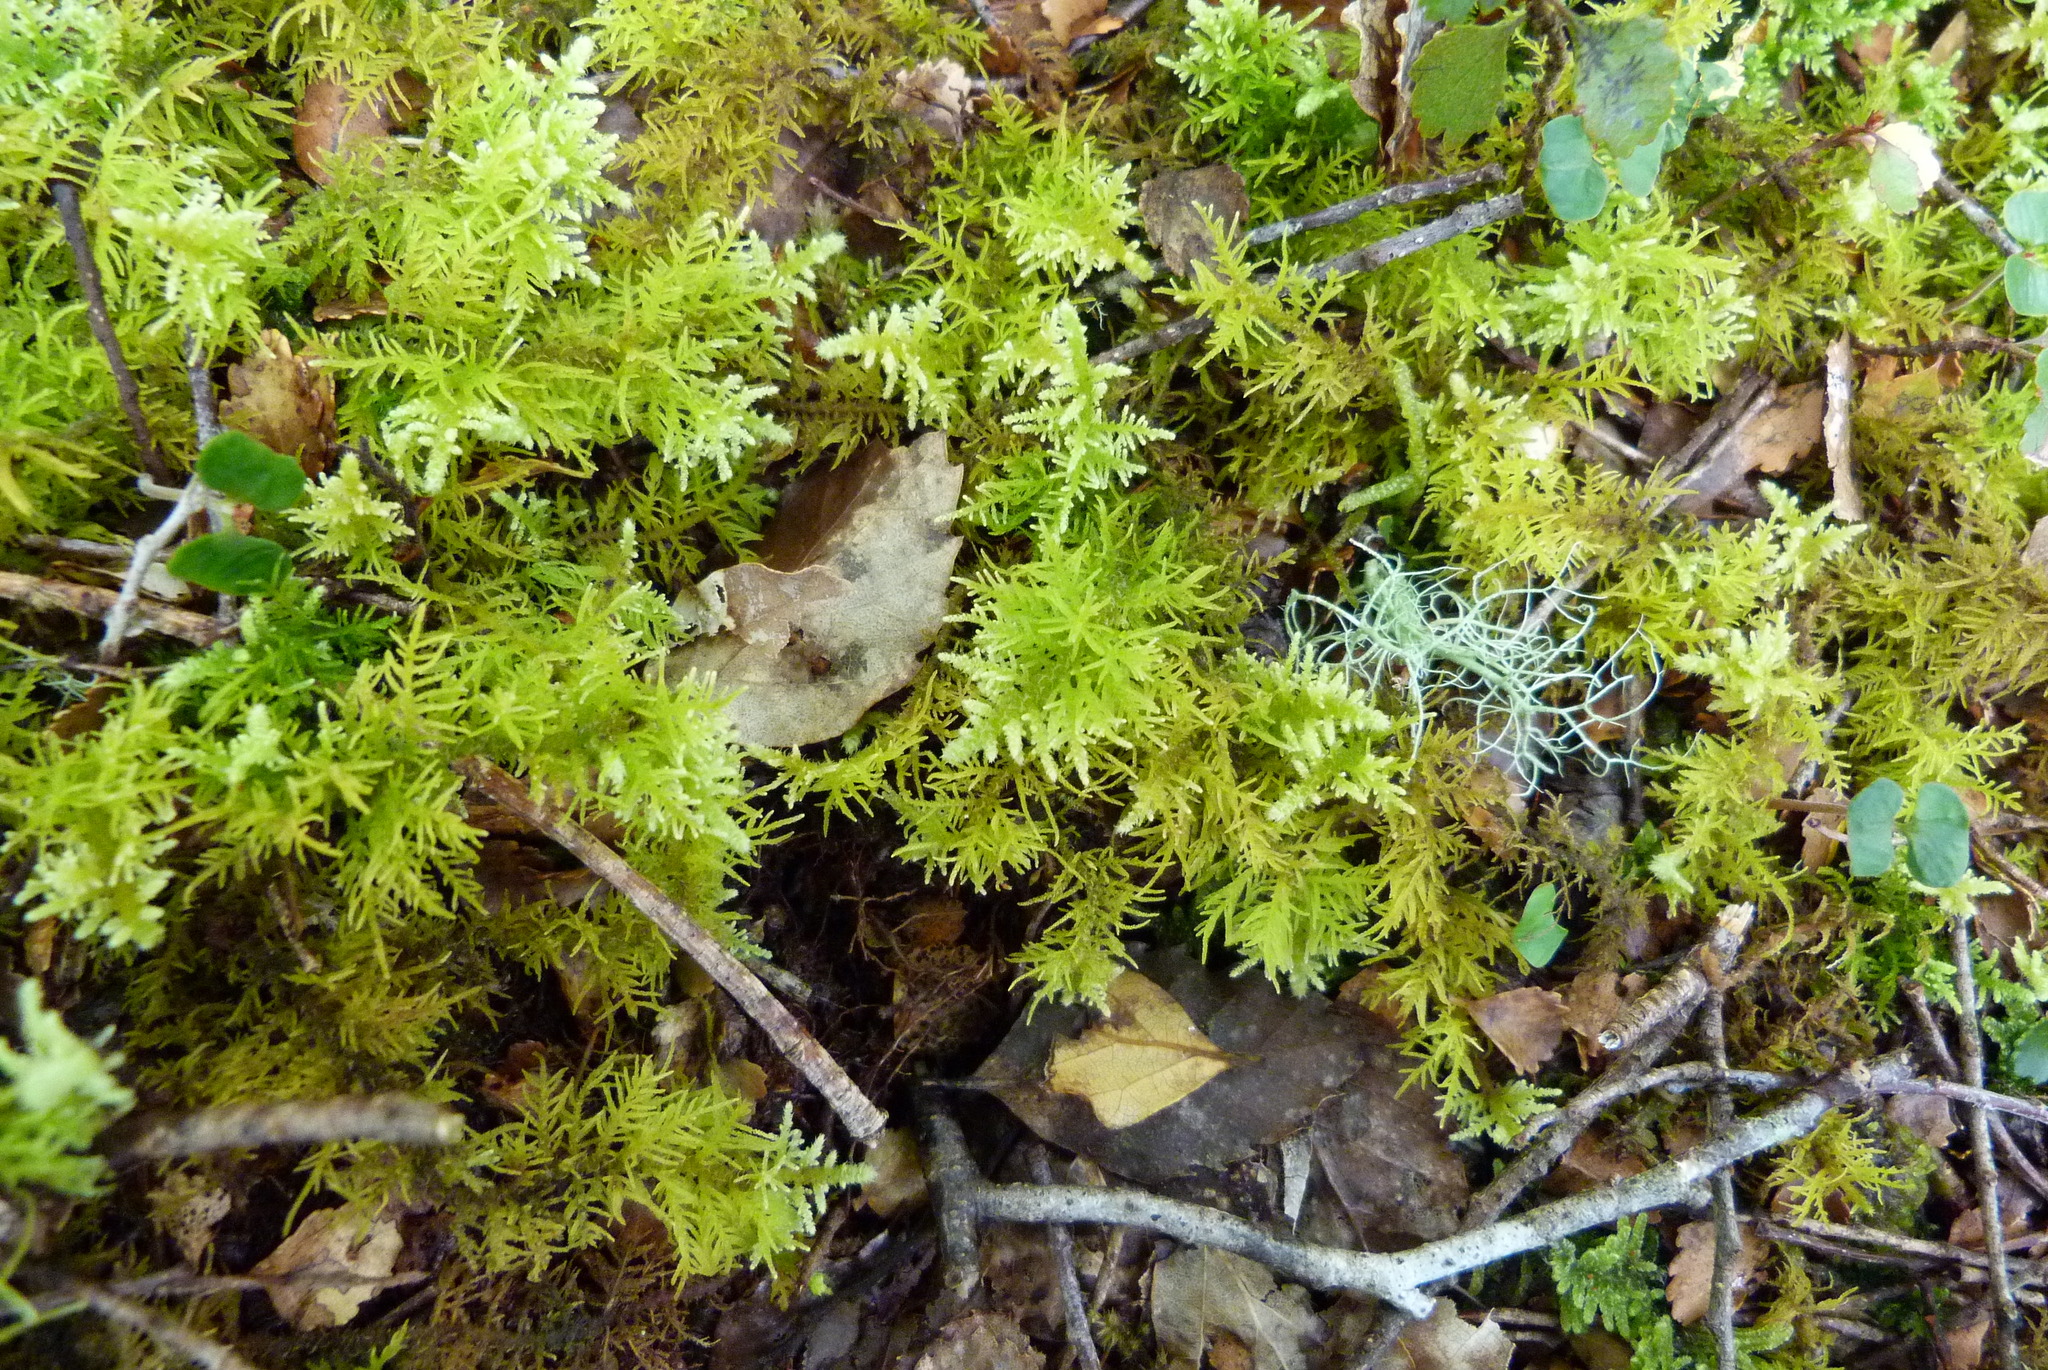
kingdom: Plantae
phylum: Bryophyta
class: Bryopsida
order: Hypnales
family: Thuidiaceae
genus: Thuidiopsis
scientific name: Thuidiopsis furfurosa
